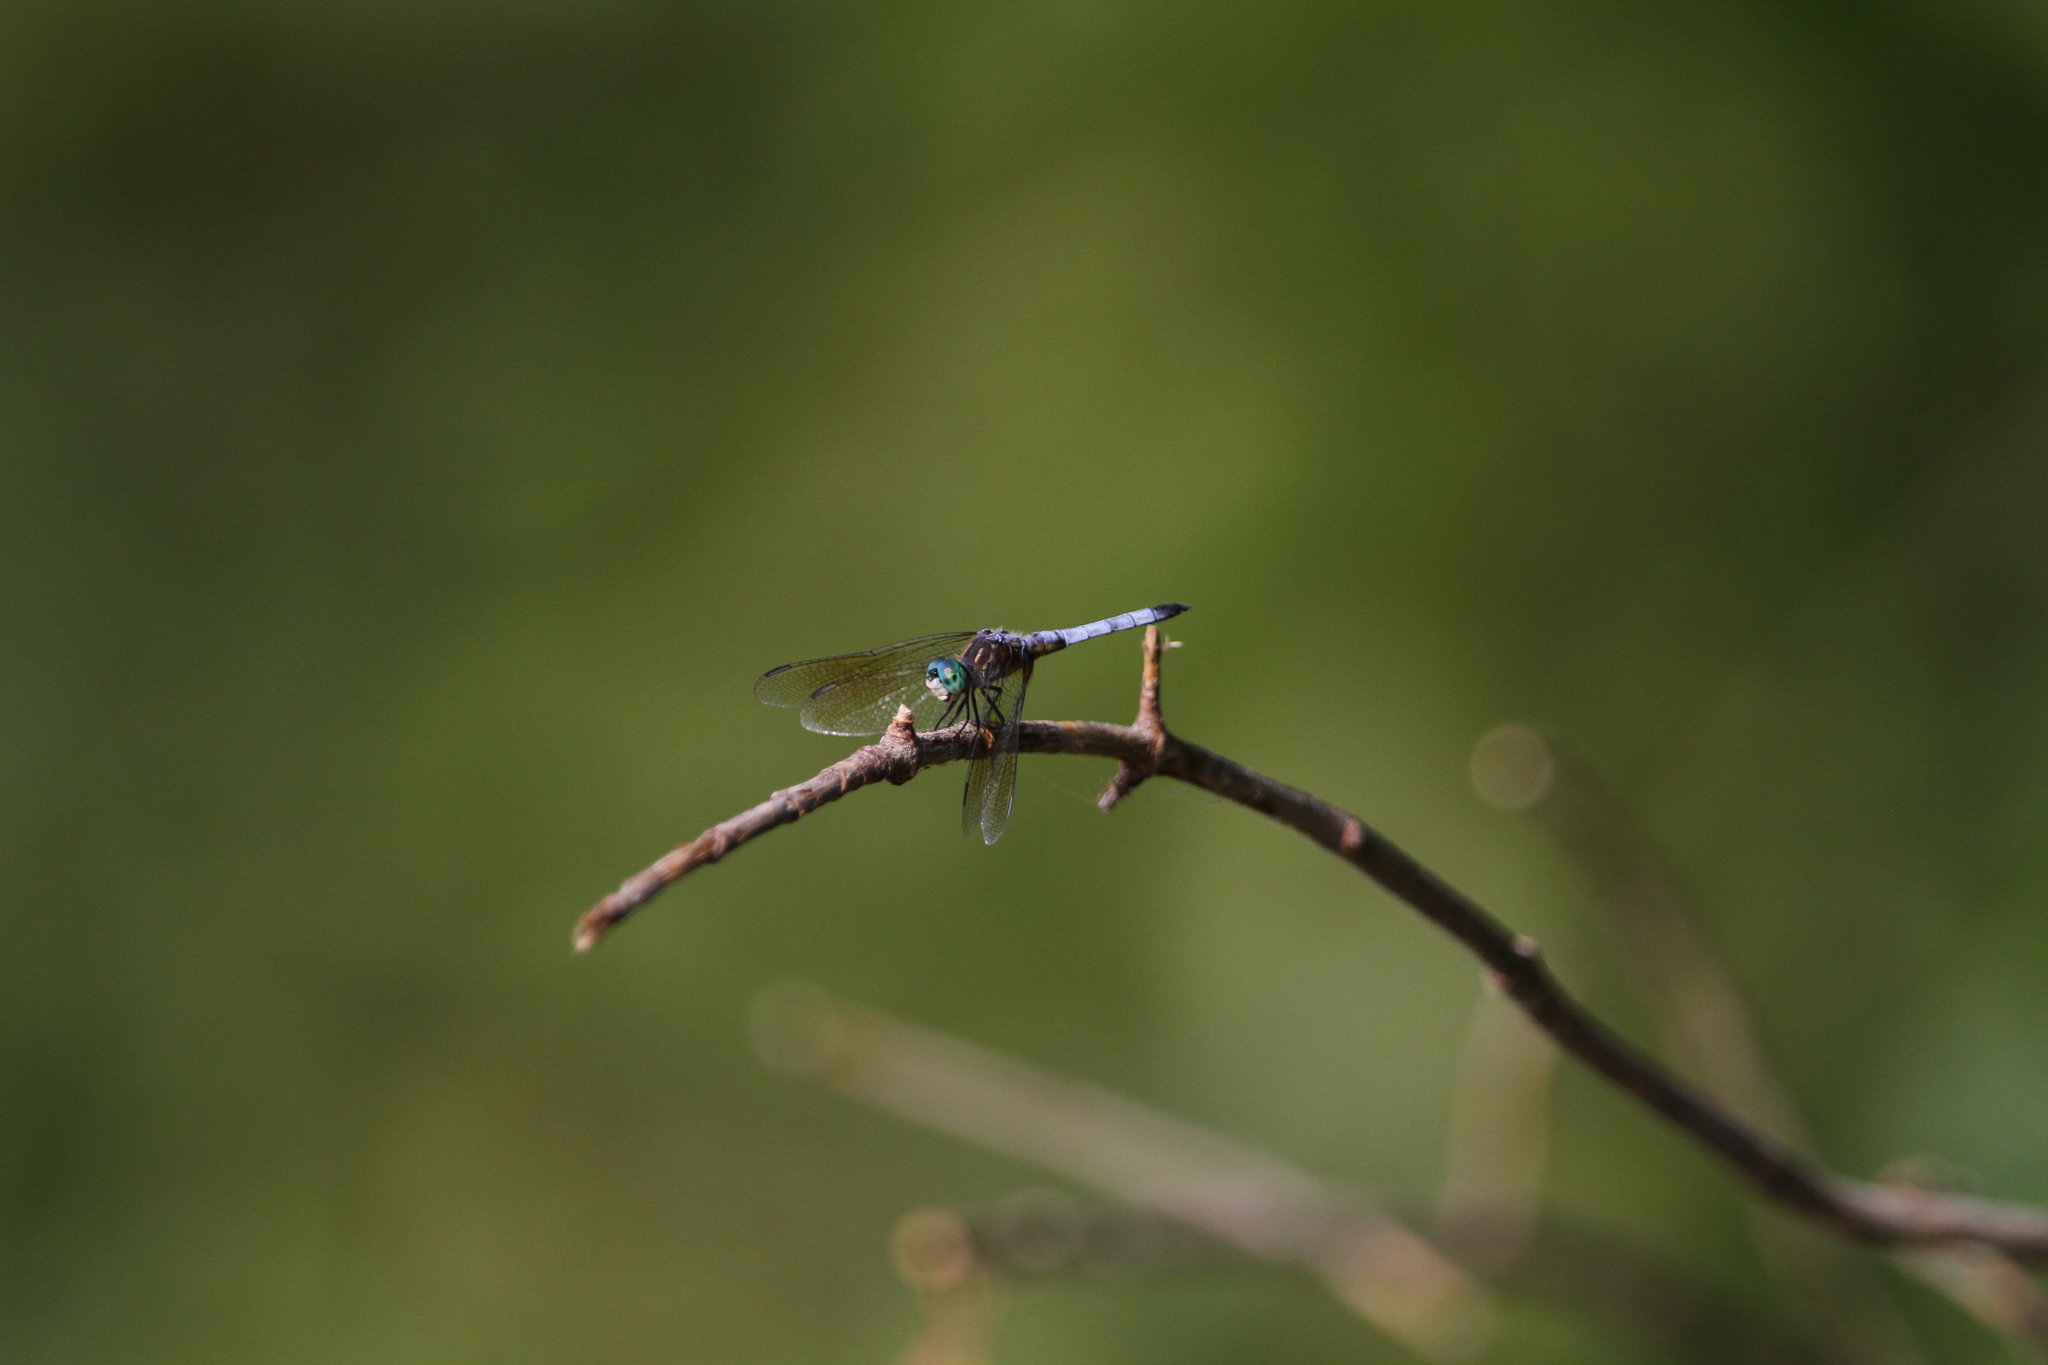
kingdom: Animalia
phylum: Arthropoda
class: Insecta
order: Odonata
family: Libellulidae
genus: Pachydiplax
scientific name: Pachydiplax longipennis
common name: Blue dasher
